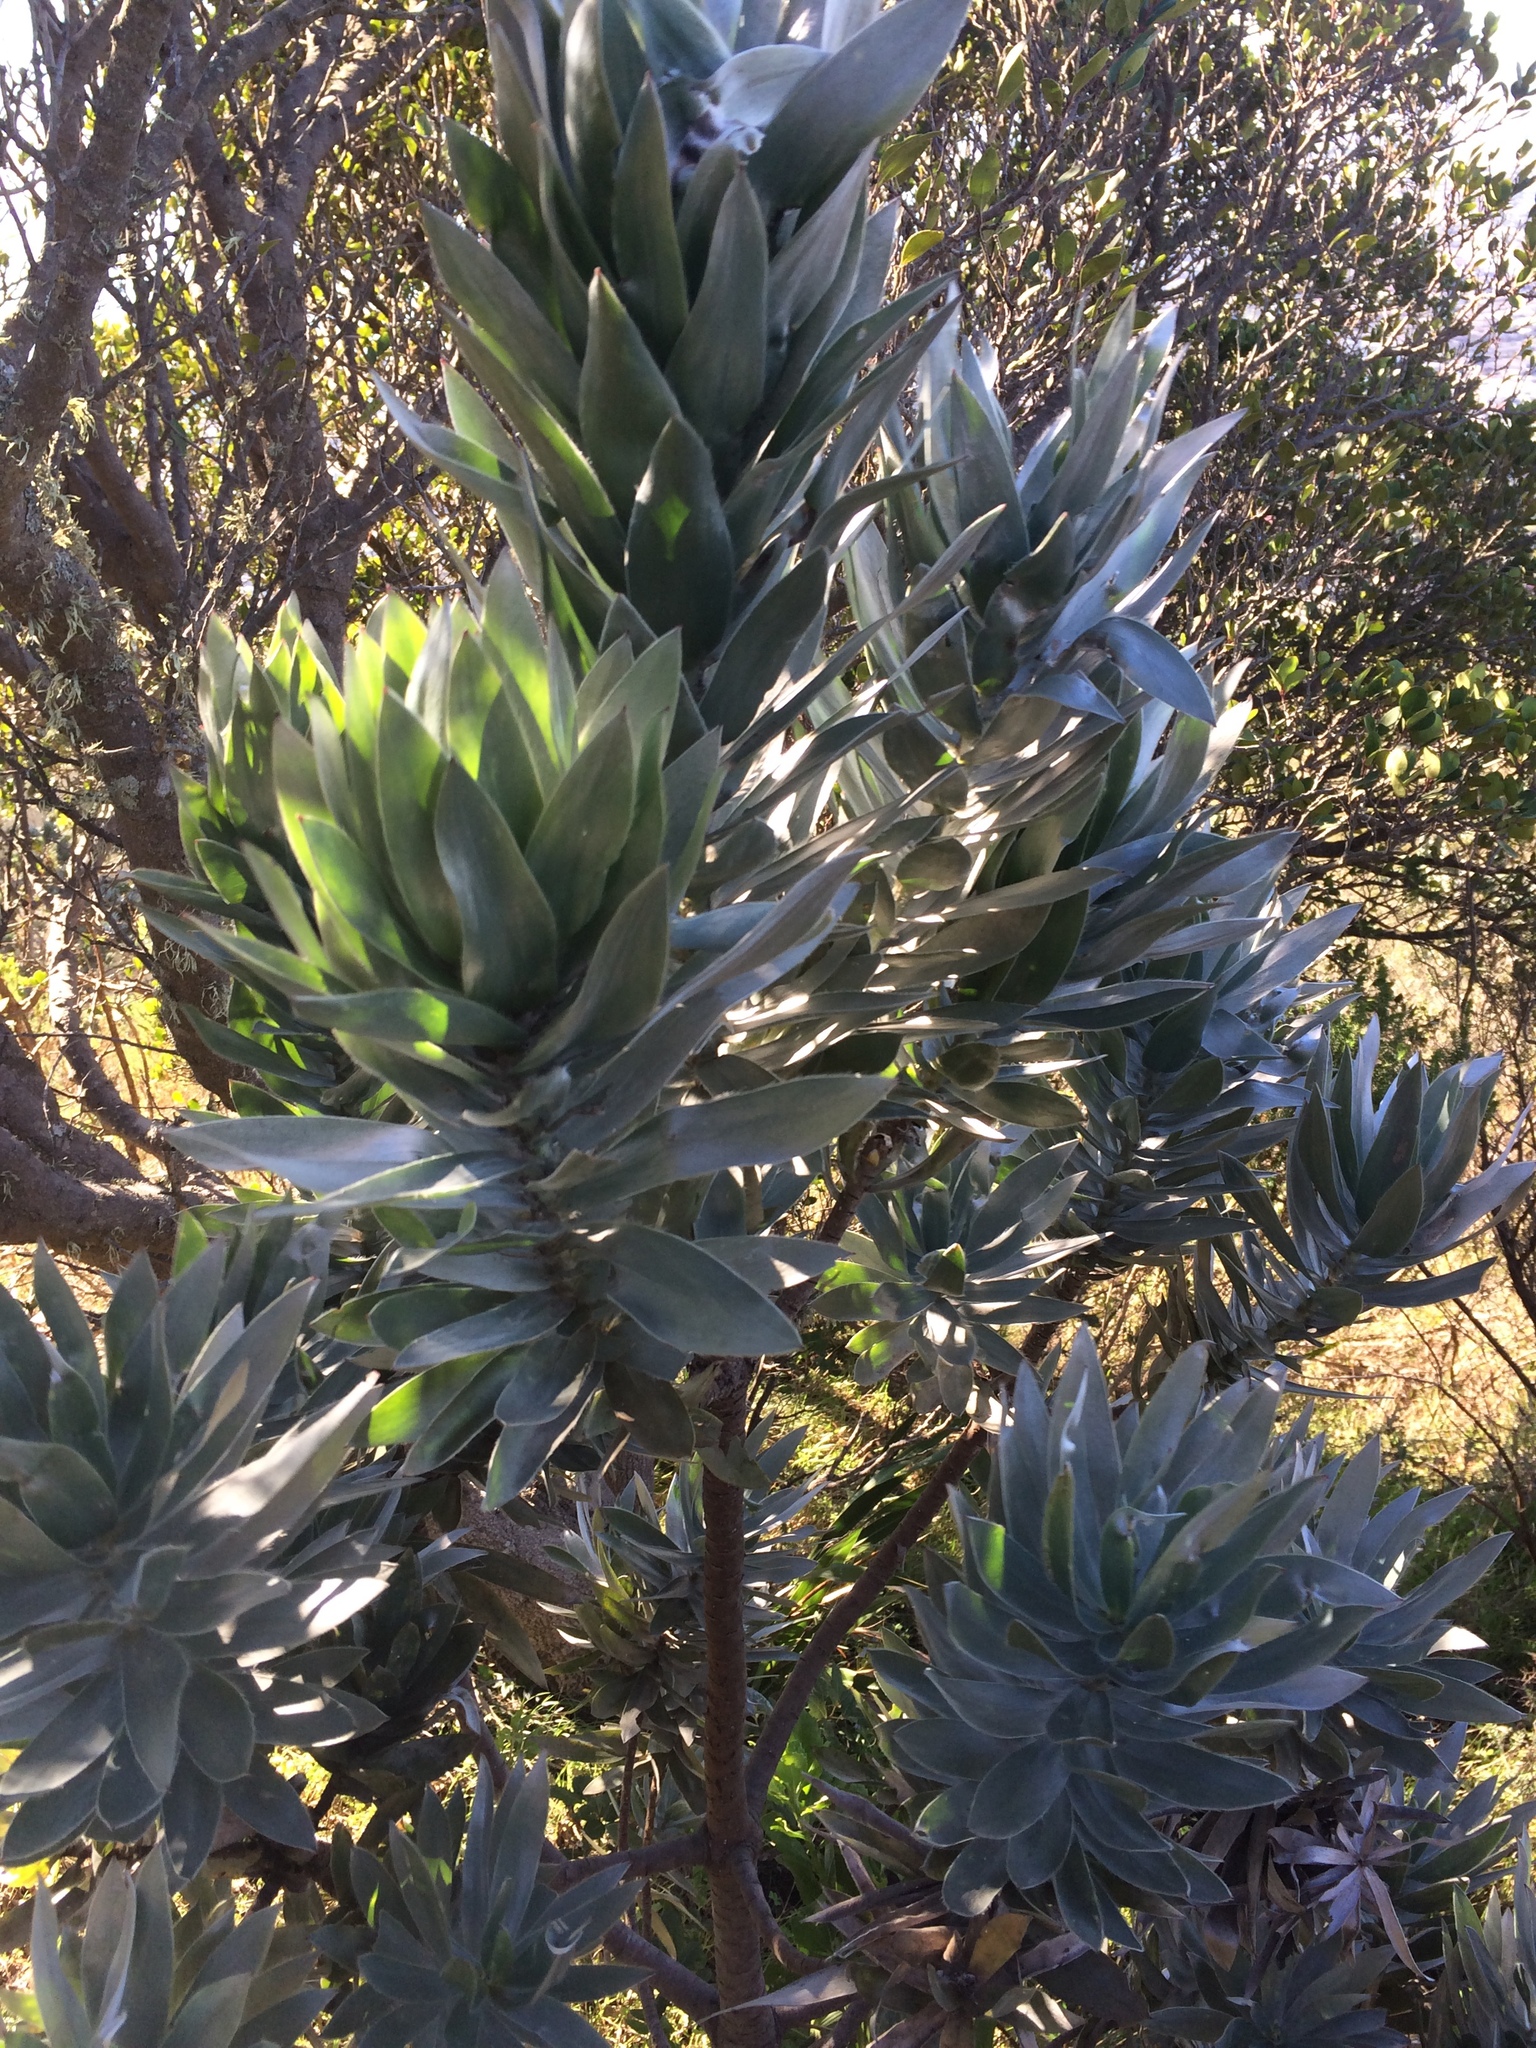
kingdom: Plantae
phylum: Tracheophyta
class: Magnoliopsida
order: Proteales
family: Proteaceae
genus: Leucadendron
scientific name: Leucadendron argenteum
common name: Cape silver tree
